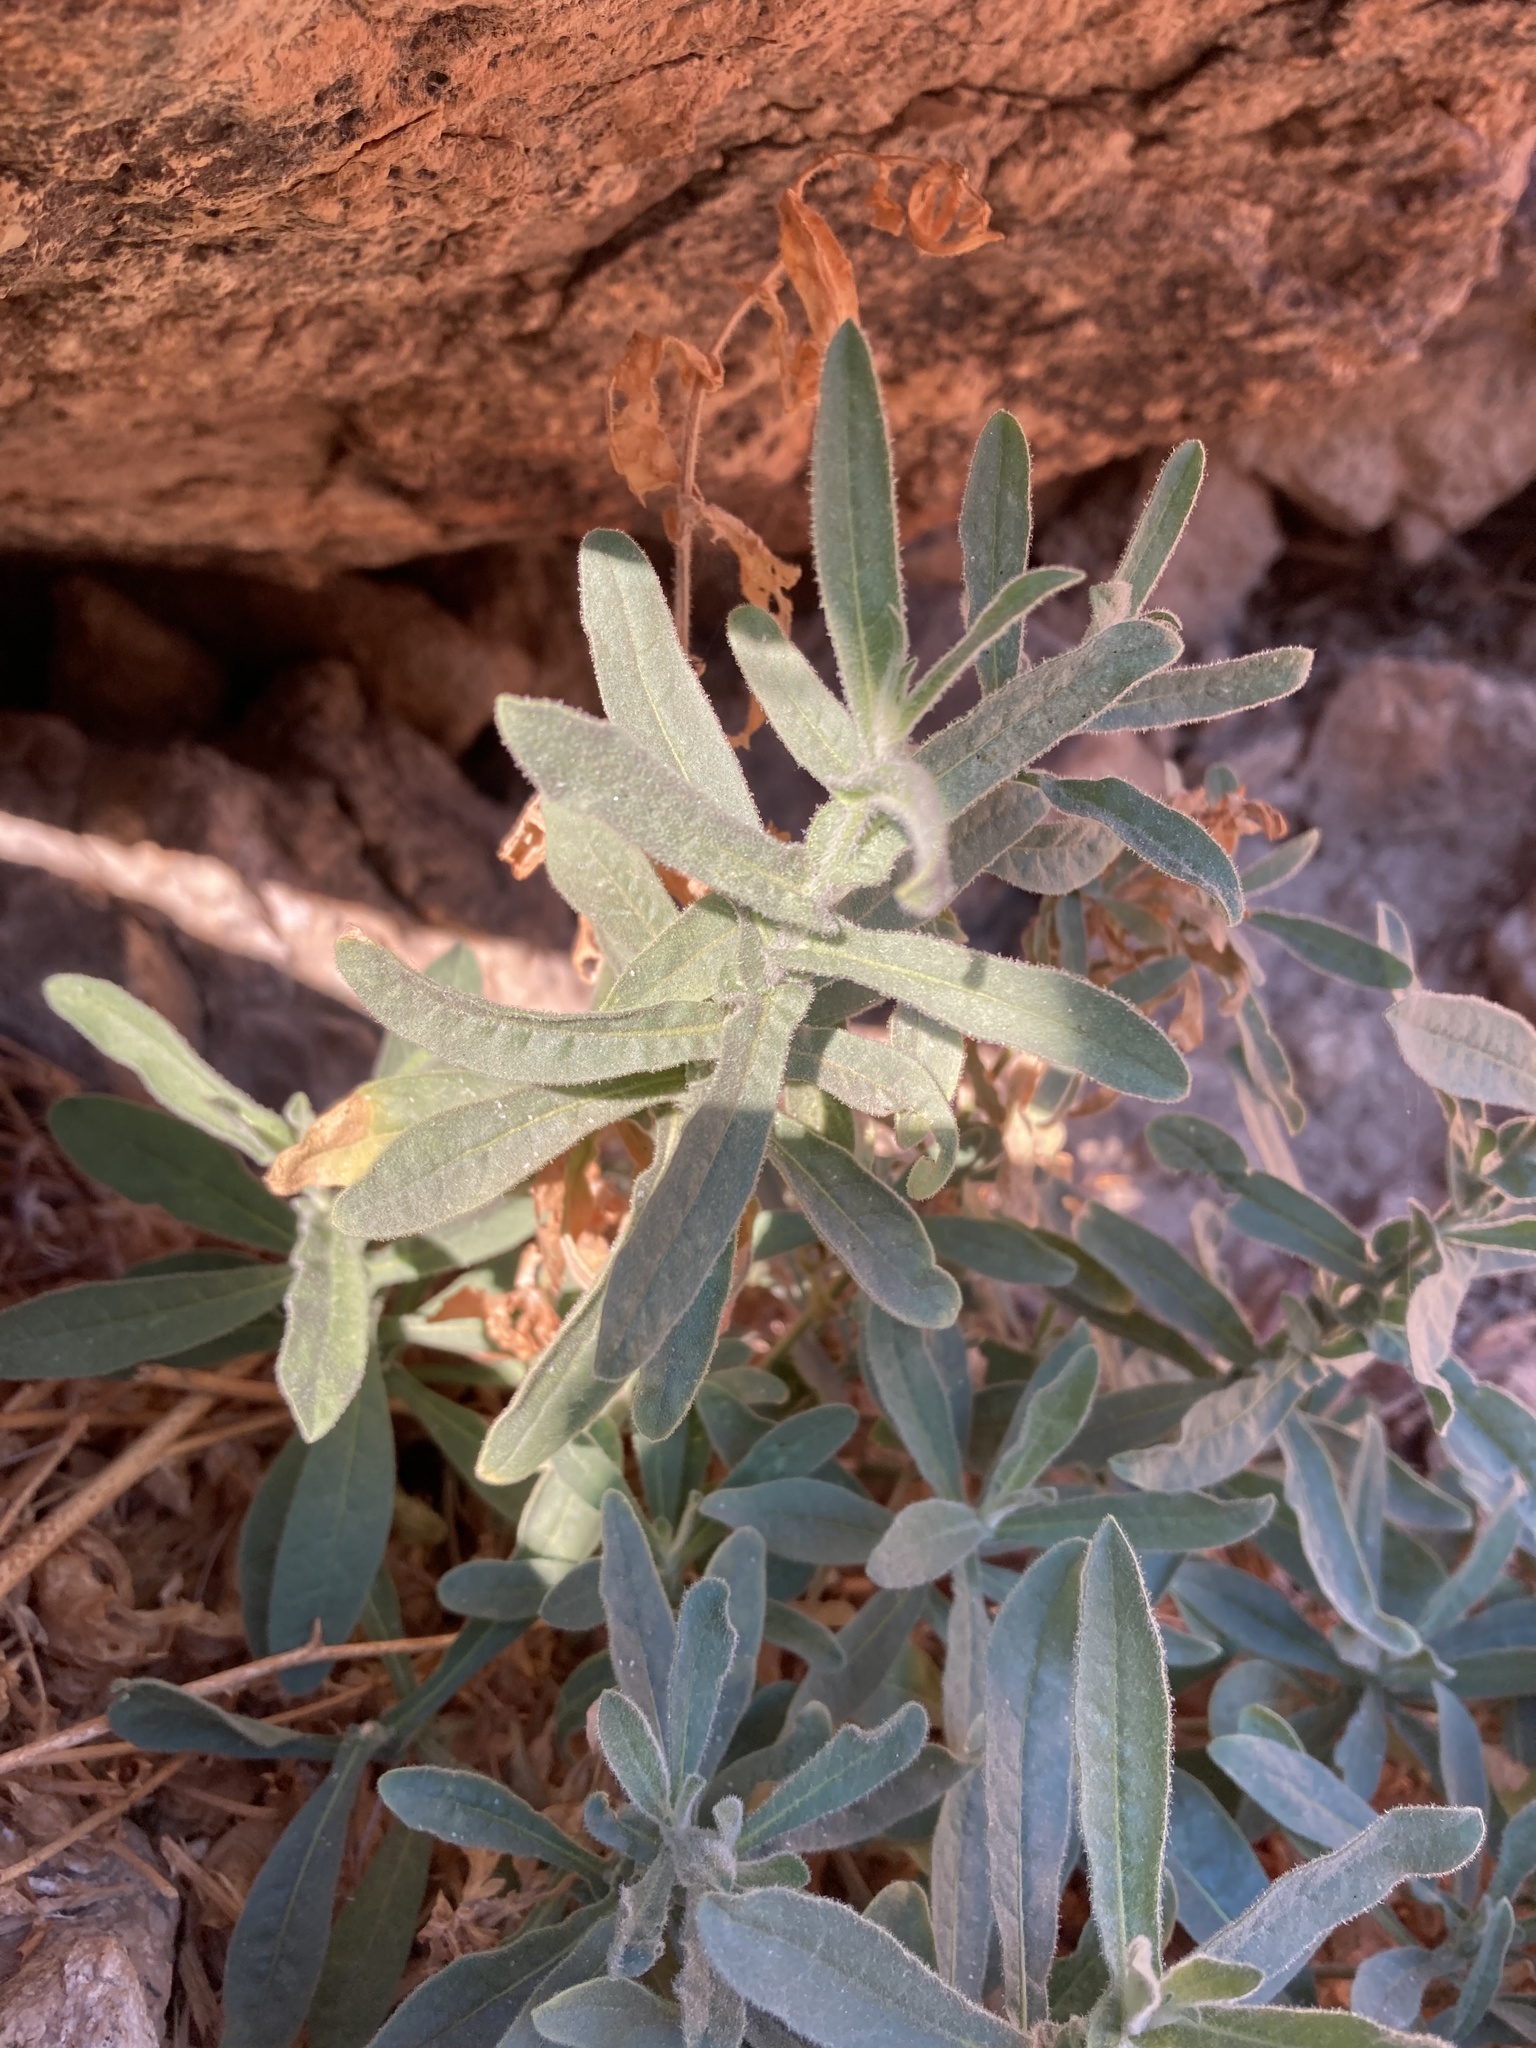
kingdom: Plantae
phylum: Tracheophyta
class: Magnoliopsida
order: Solanales
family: Solanaceae
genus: Nicotiana
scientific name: Nicotiana obtusifolia
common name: Desert tobacco
